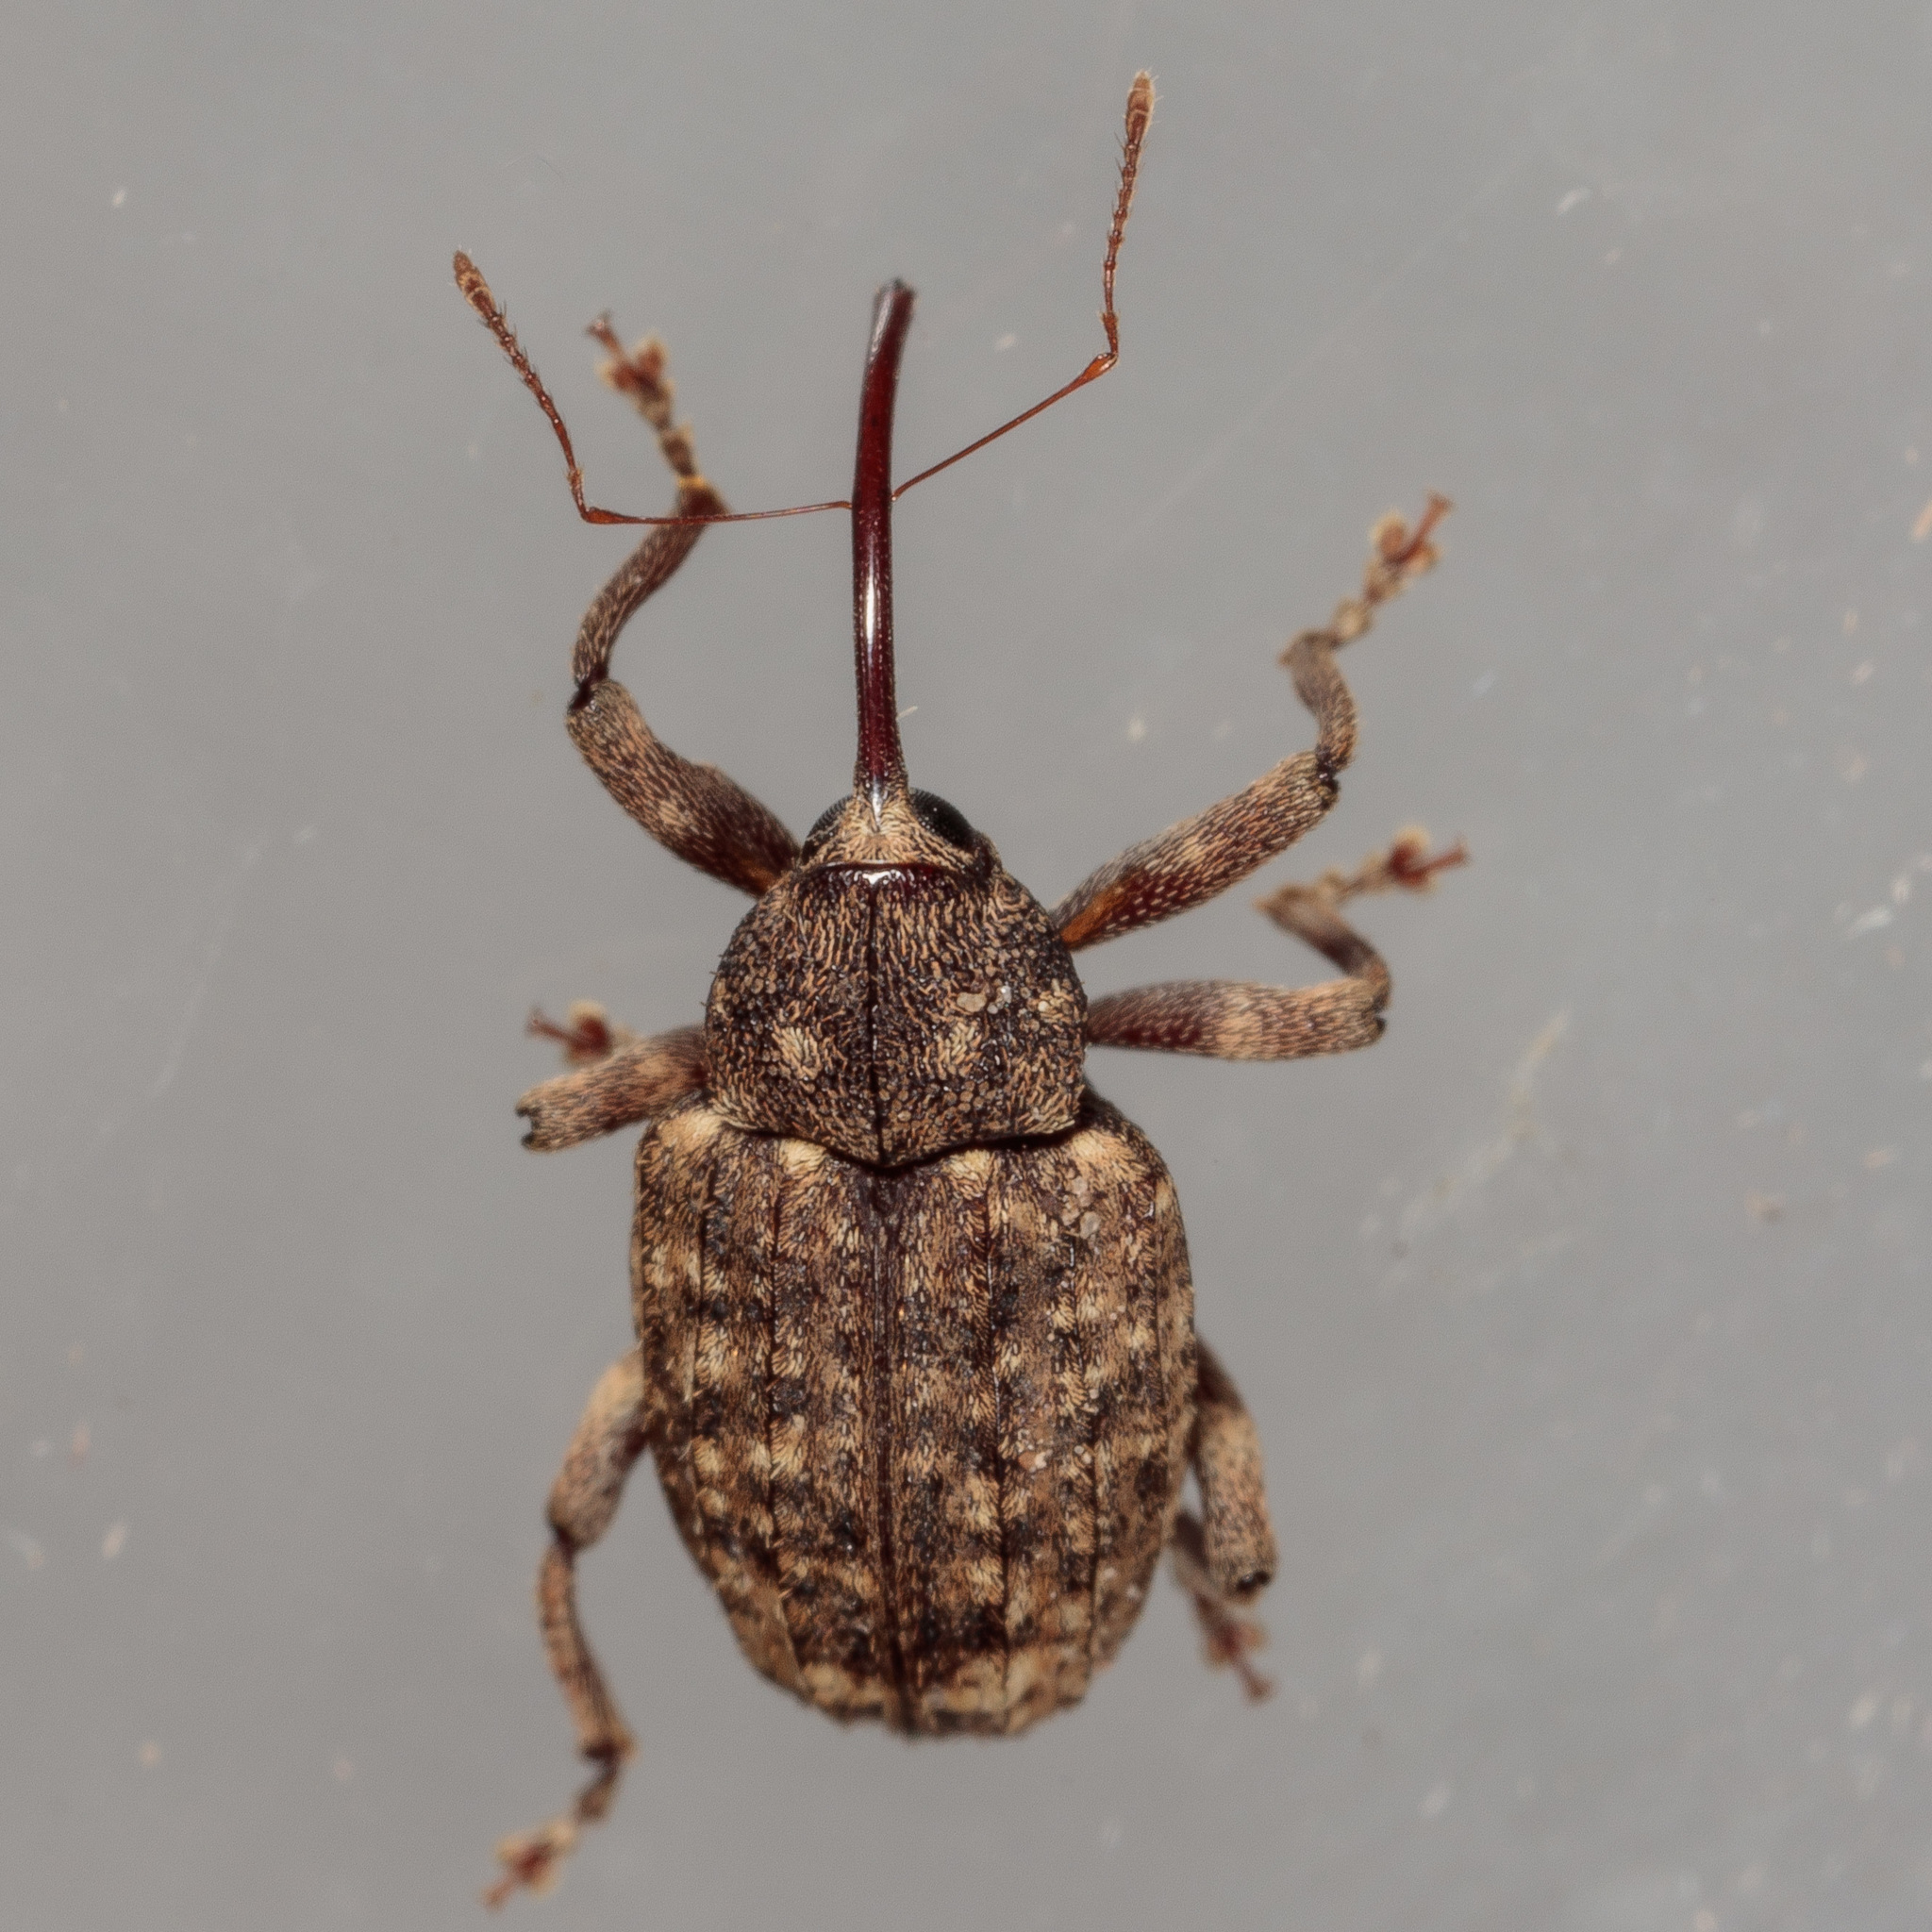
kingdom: Animalia
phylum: Arthropoda
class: Insecta
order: Coleoptera
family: Curculionidae
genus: Conotrachelus
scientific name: Conotrachelus naso
